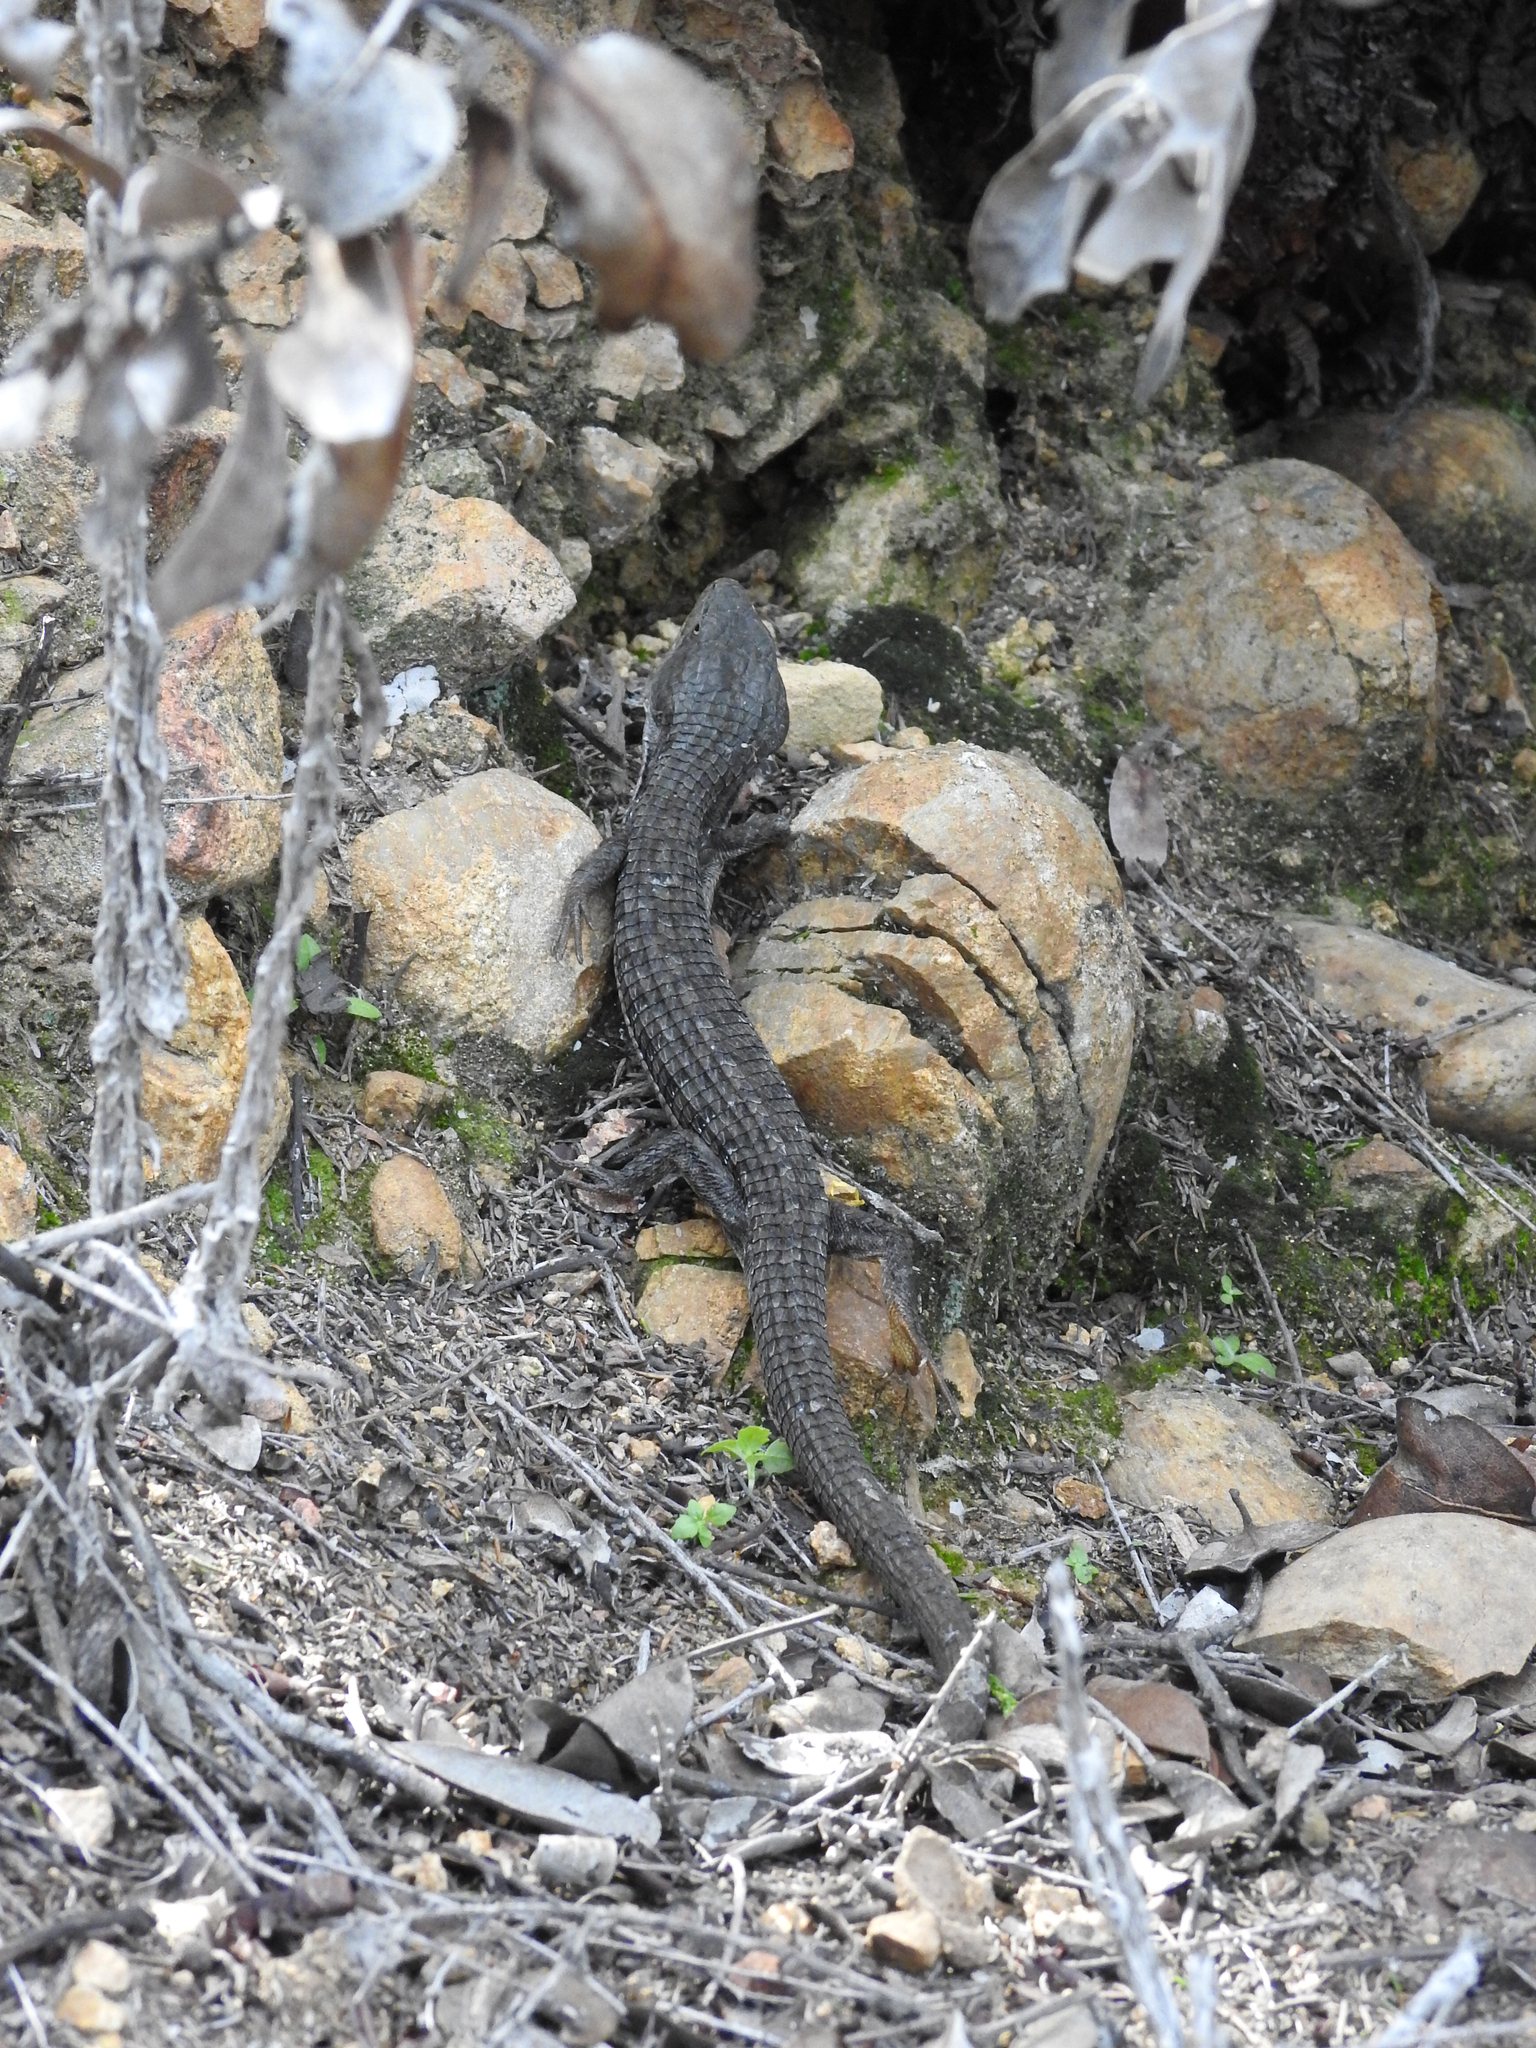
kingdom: Animalia
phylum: Chordata
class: Squamata
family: Anguidae
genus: Elgaria
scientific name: Elgaria multicarinata
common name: Southern alligator lizard
